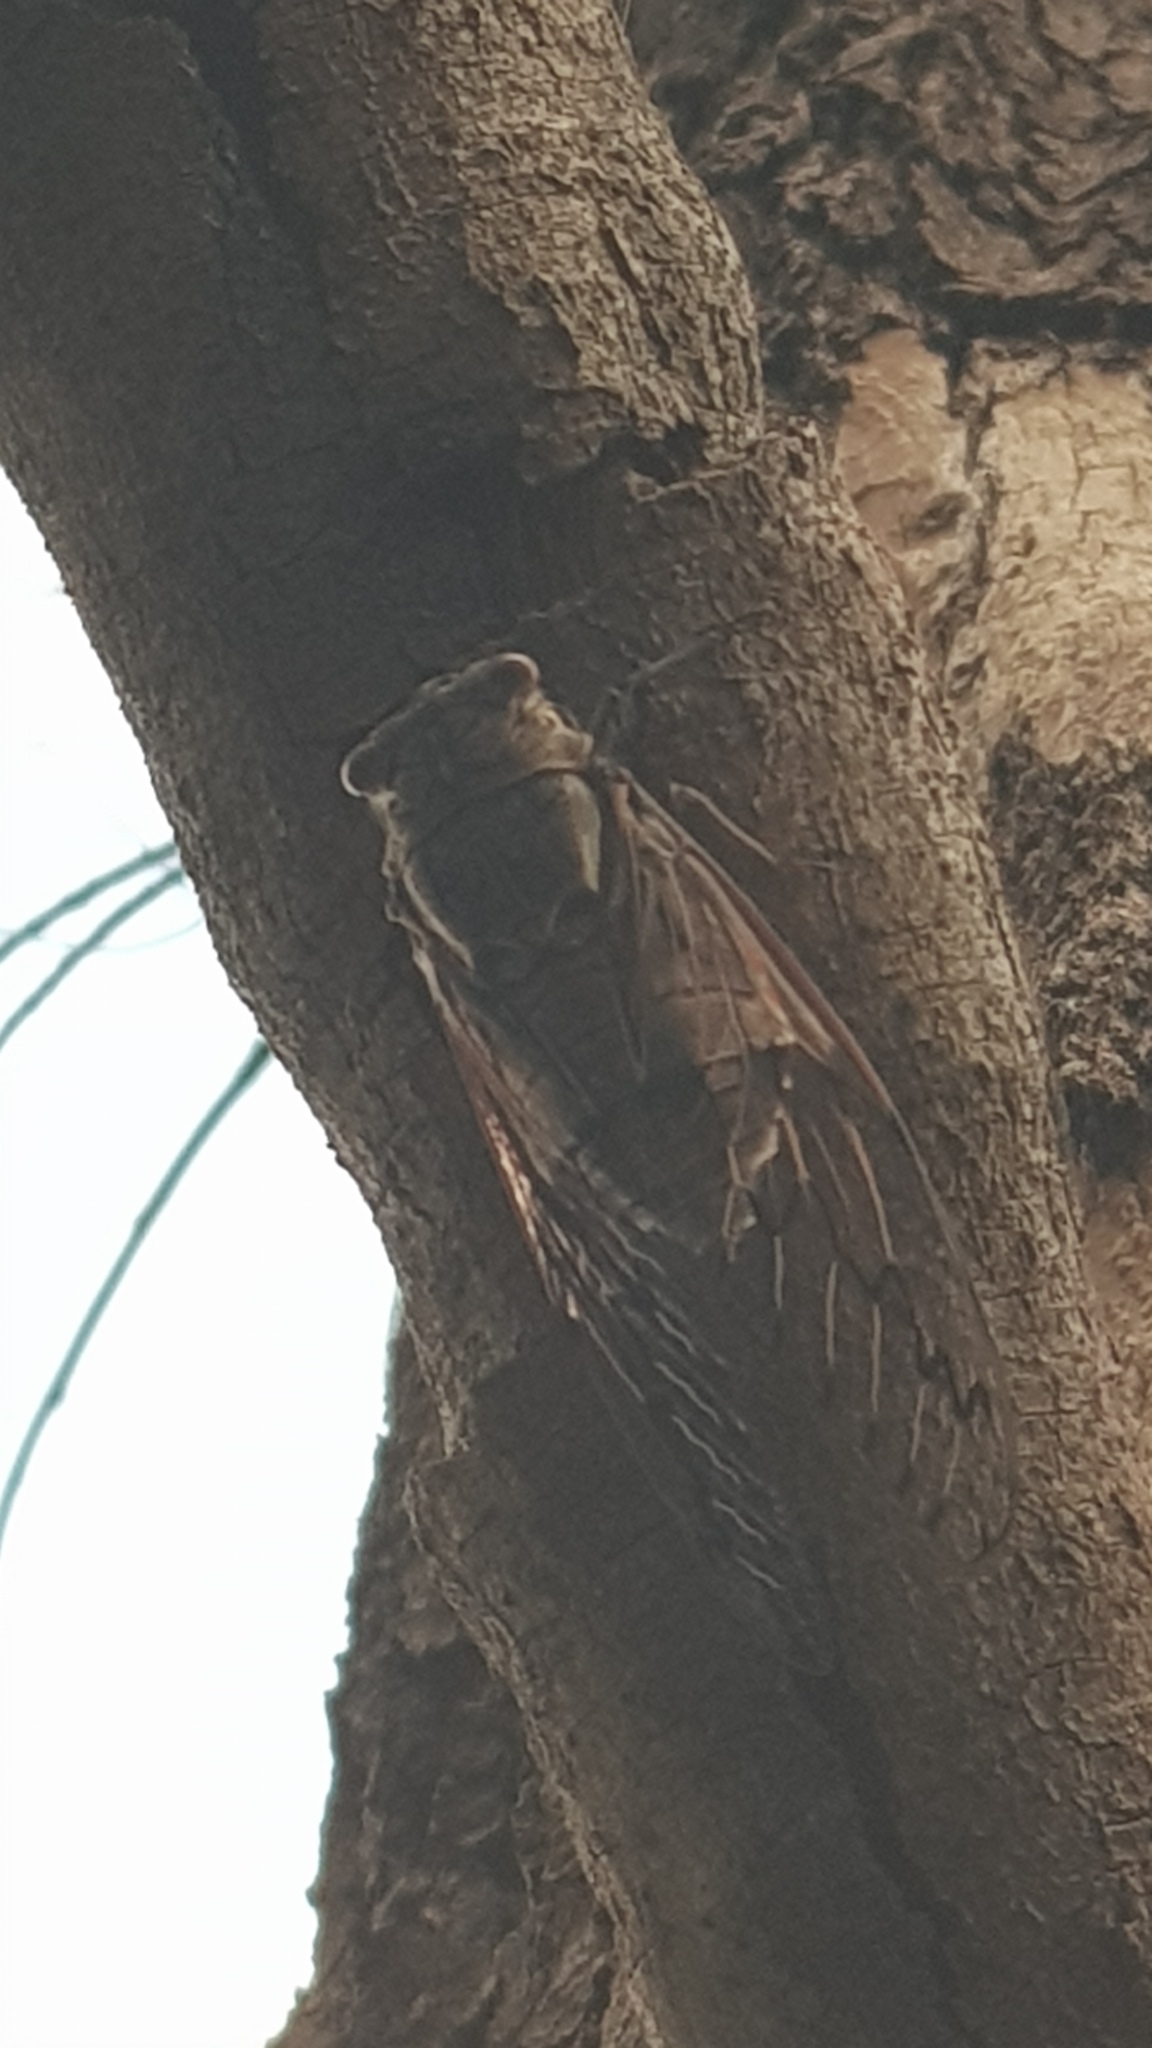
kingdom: Animalia
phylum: Arthropoda
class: Insecta
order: Hemiptera
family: Cicadidae
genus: Henicopsaltria
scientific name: Henicopsaltria eydouxii
